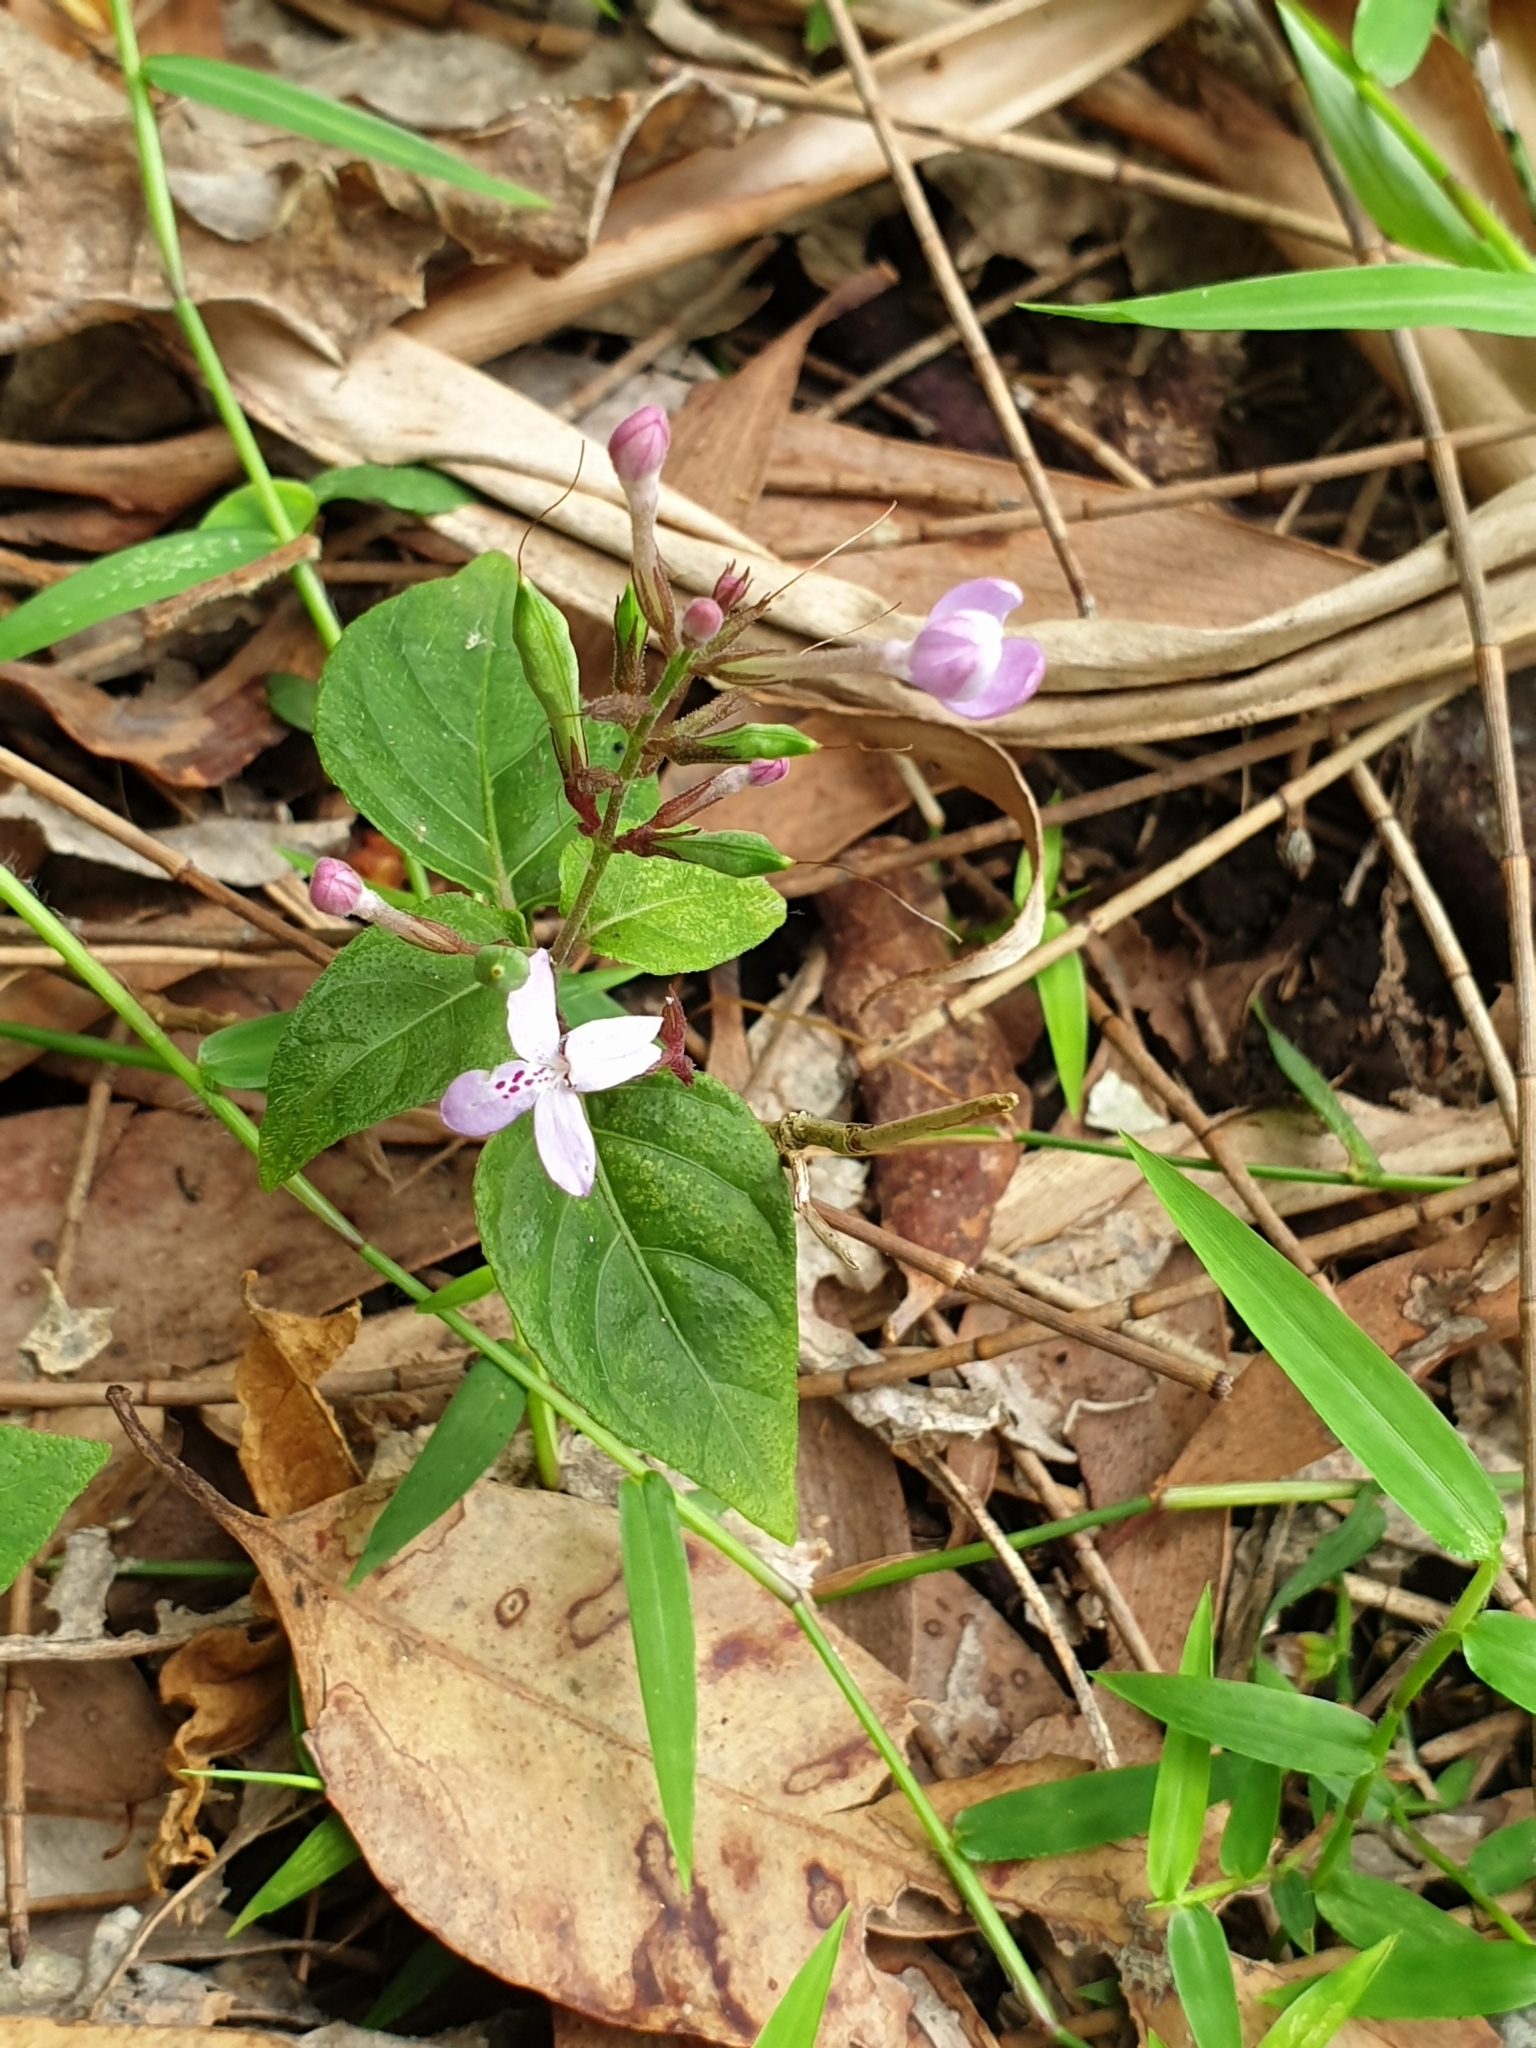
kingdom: Plantae
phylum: Tracheophyta
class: Magnoliopsida
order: Lamiales
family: Acanthaceae
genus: Pseuderanthemum
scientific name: Pseuderanthemum variabile
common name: Night and afternoon
